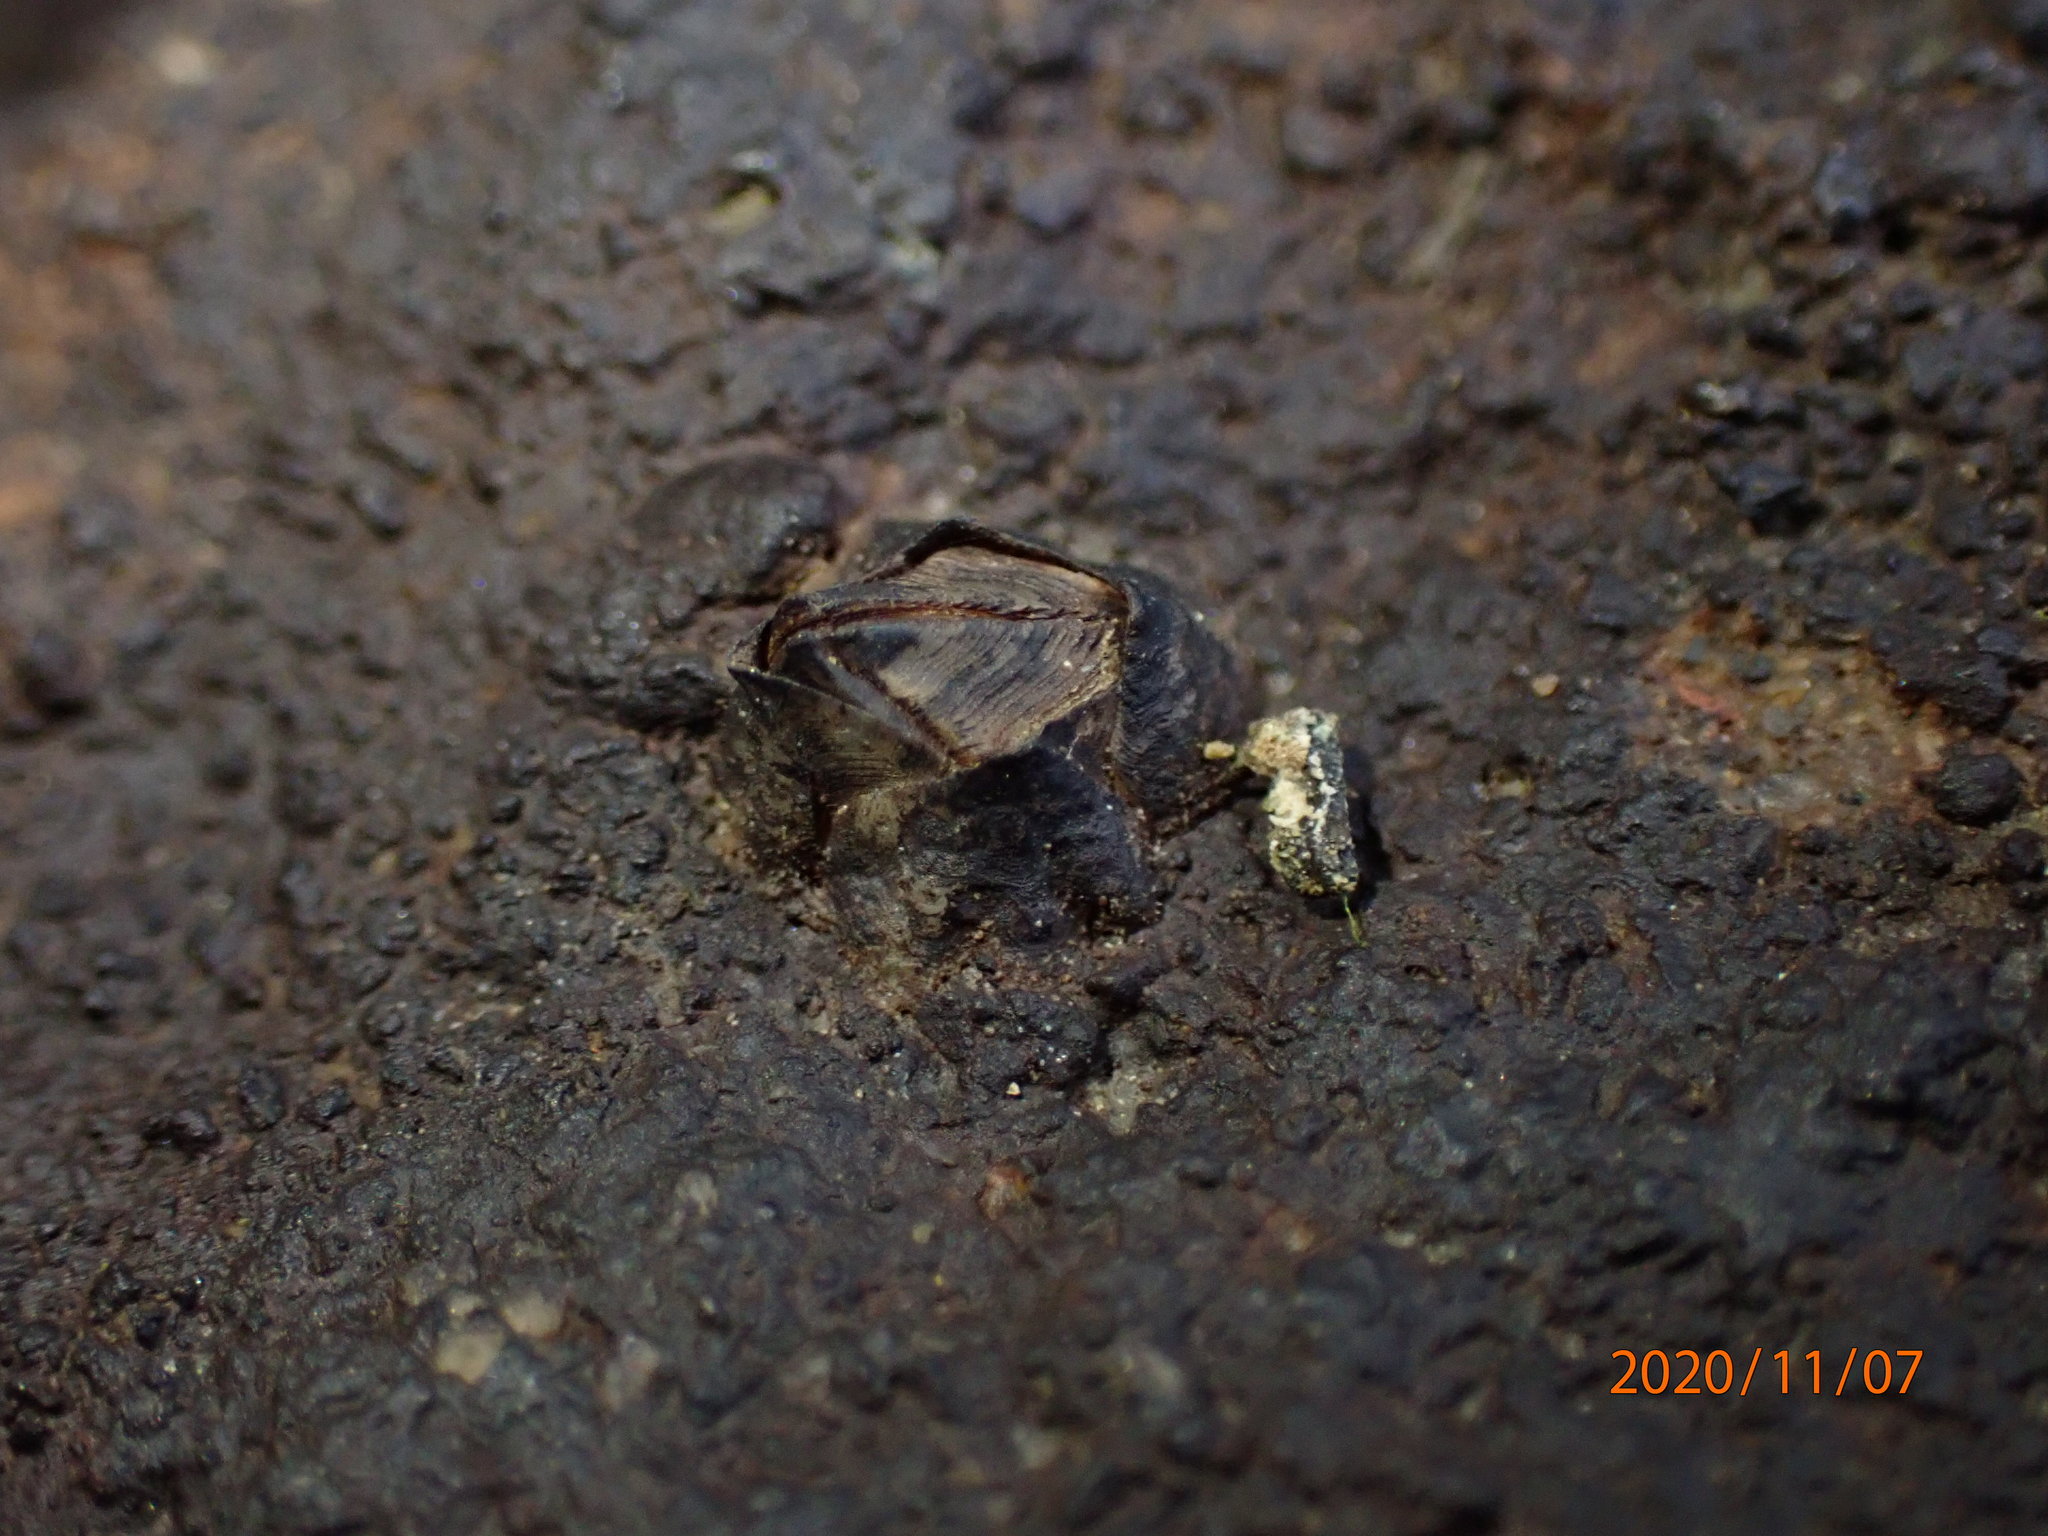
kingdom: Animalia
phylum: Arthropoda
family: Elminiidae
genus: Austrominius
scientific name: Austrominius modestus
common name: Australasian barnacle
